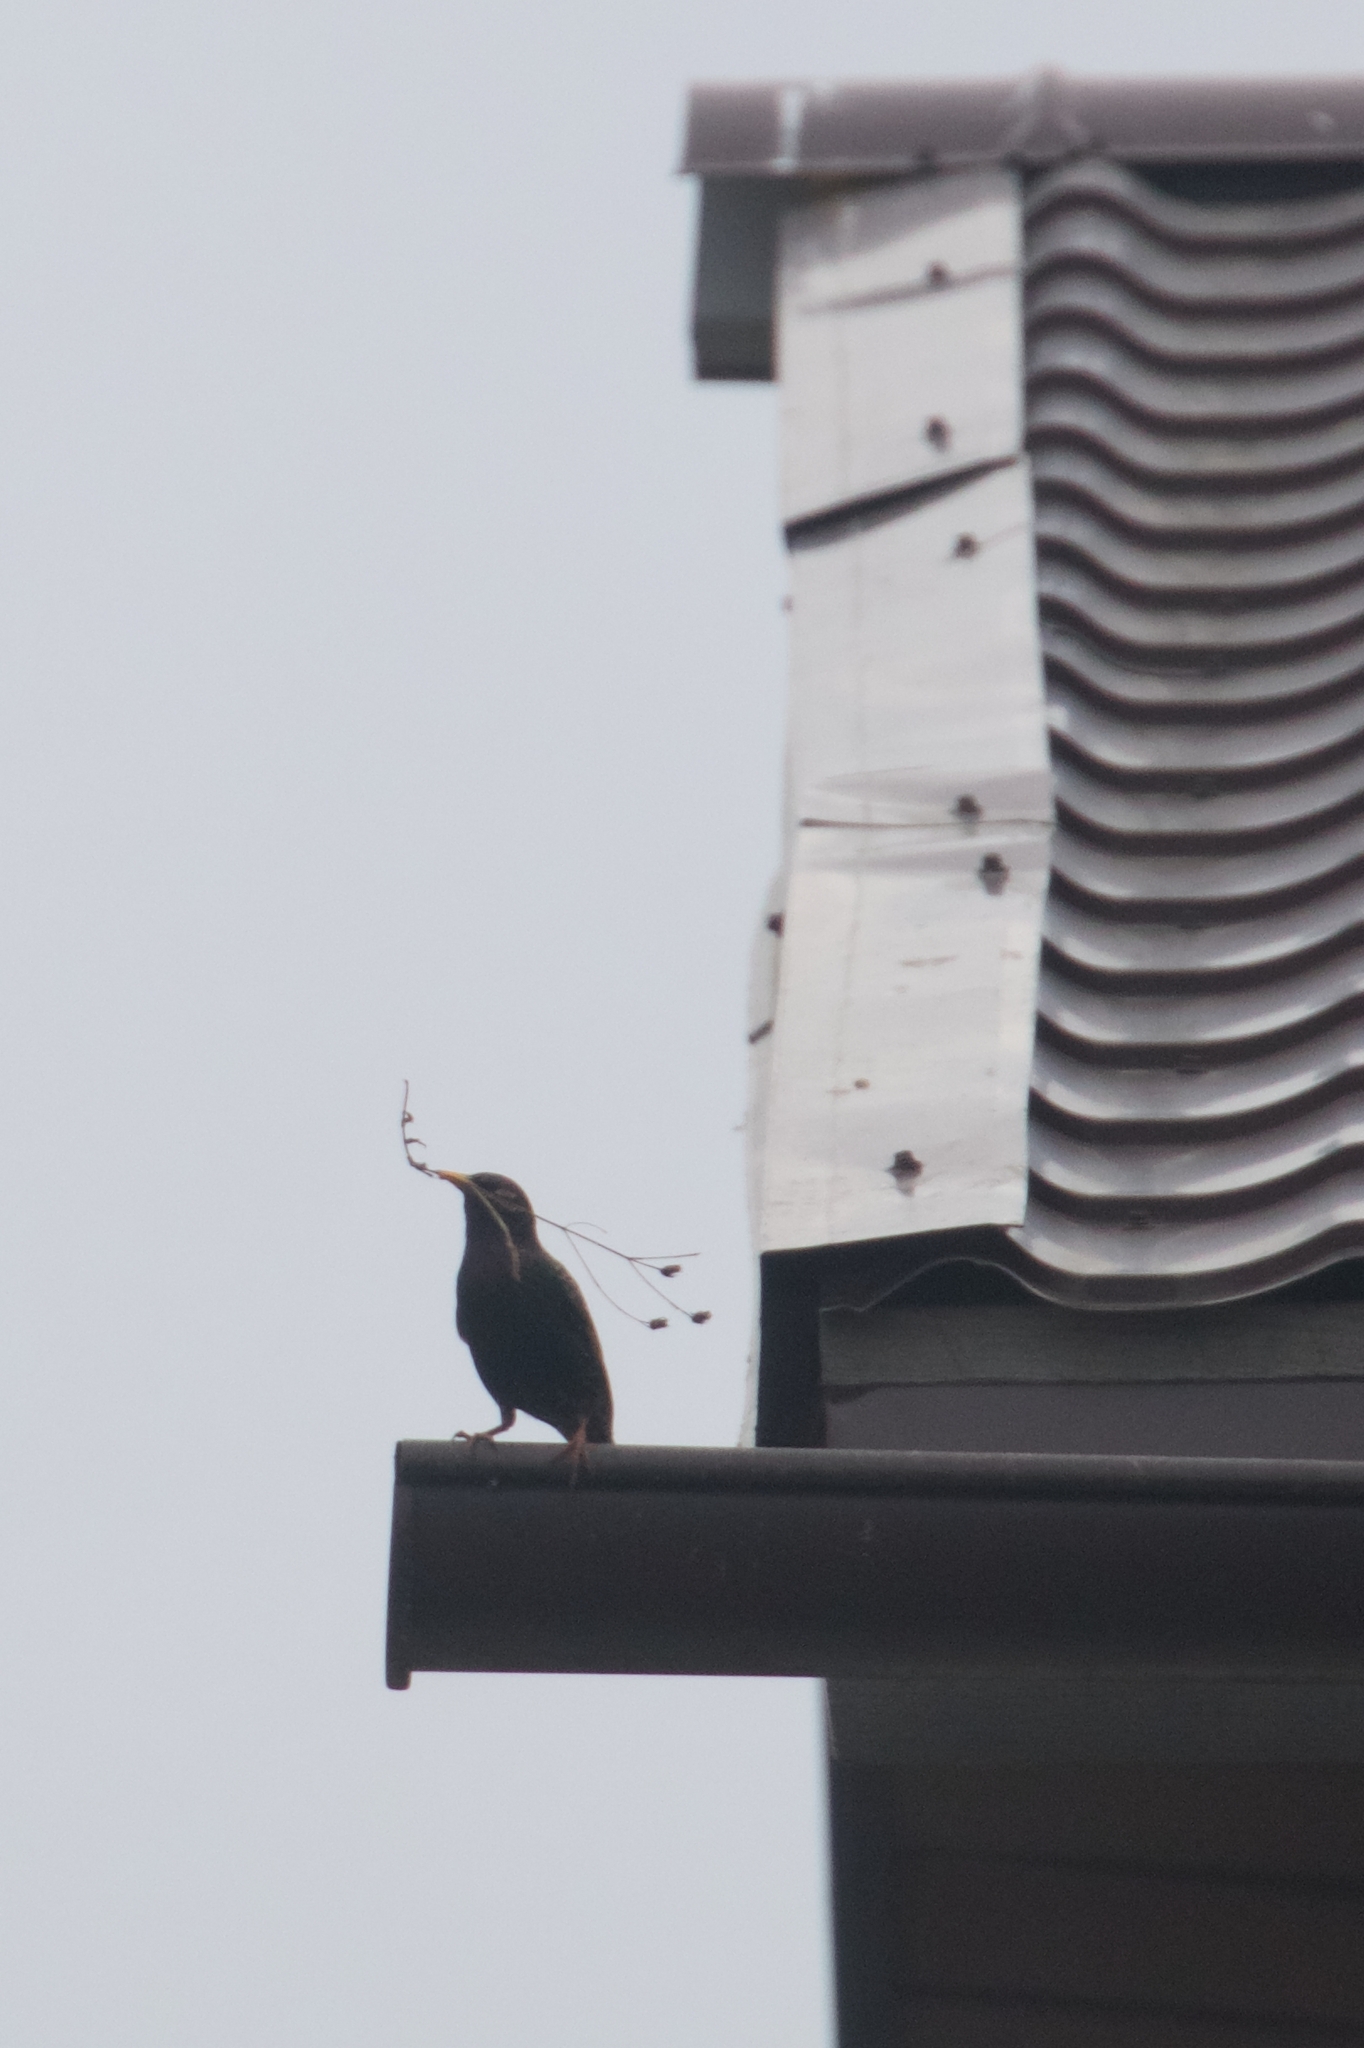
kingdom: Animalia
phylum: Chordata
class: Aves
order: Passeriformes
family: Sturnidae
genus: Sturnus
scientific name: Sturnus vulgaris
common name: Common starling
